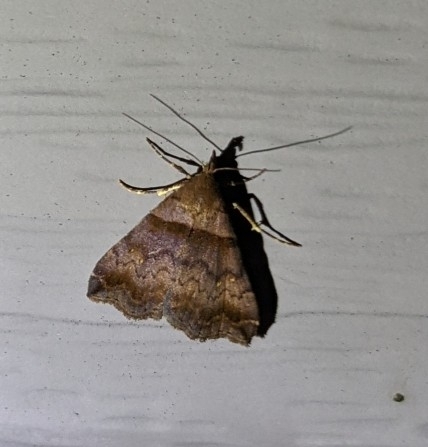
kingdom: Animalia
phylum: Arthropoda
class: Insecta
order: Lepidoptera
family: Erebidae
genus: Lascoria
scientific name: Lascoria ambigualis
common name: Ambiguous moth
